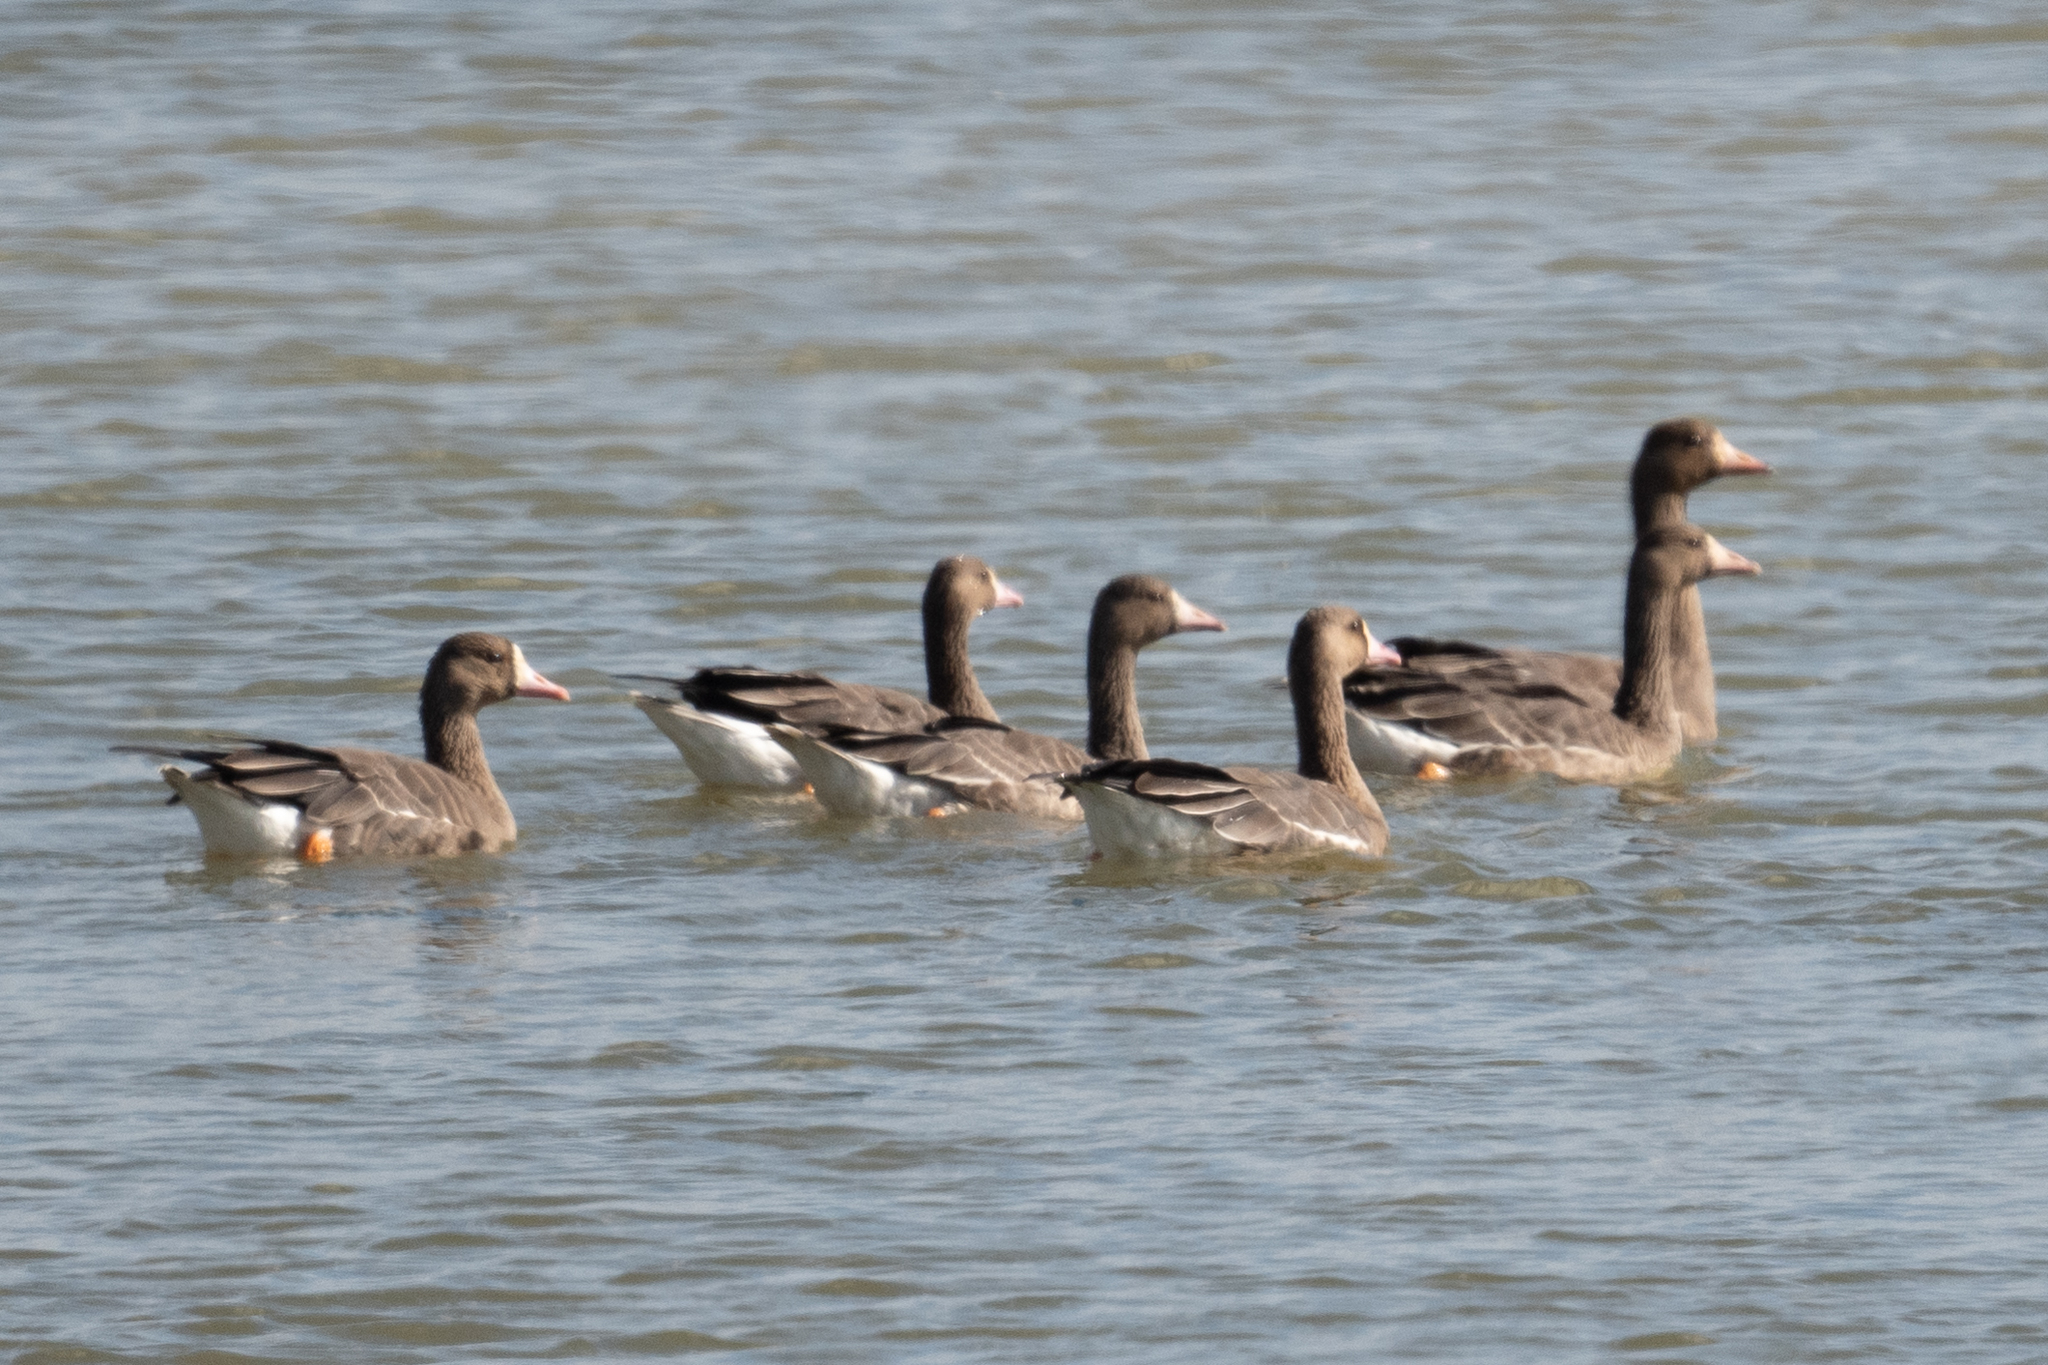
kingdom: Animalia
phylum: Chordata
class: Aves
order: Anseriformes
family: Anatidae
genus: Anser
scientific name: Anser albifrons
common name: Greater white-fronted goose
